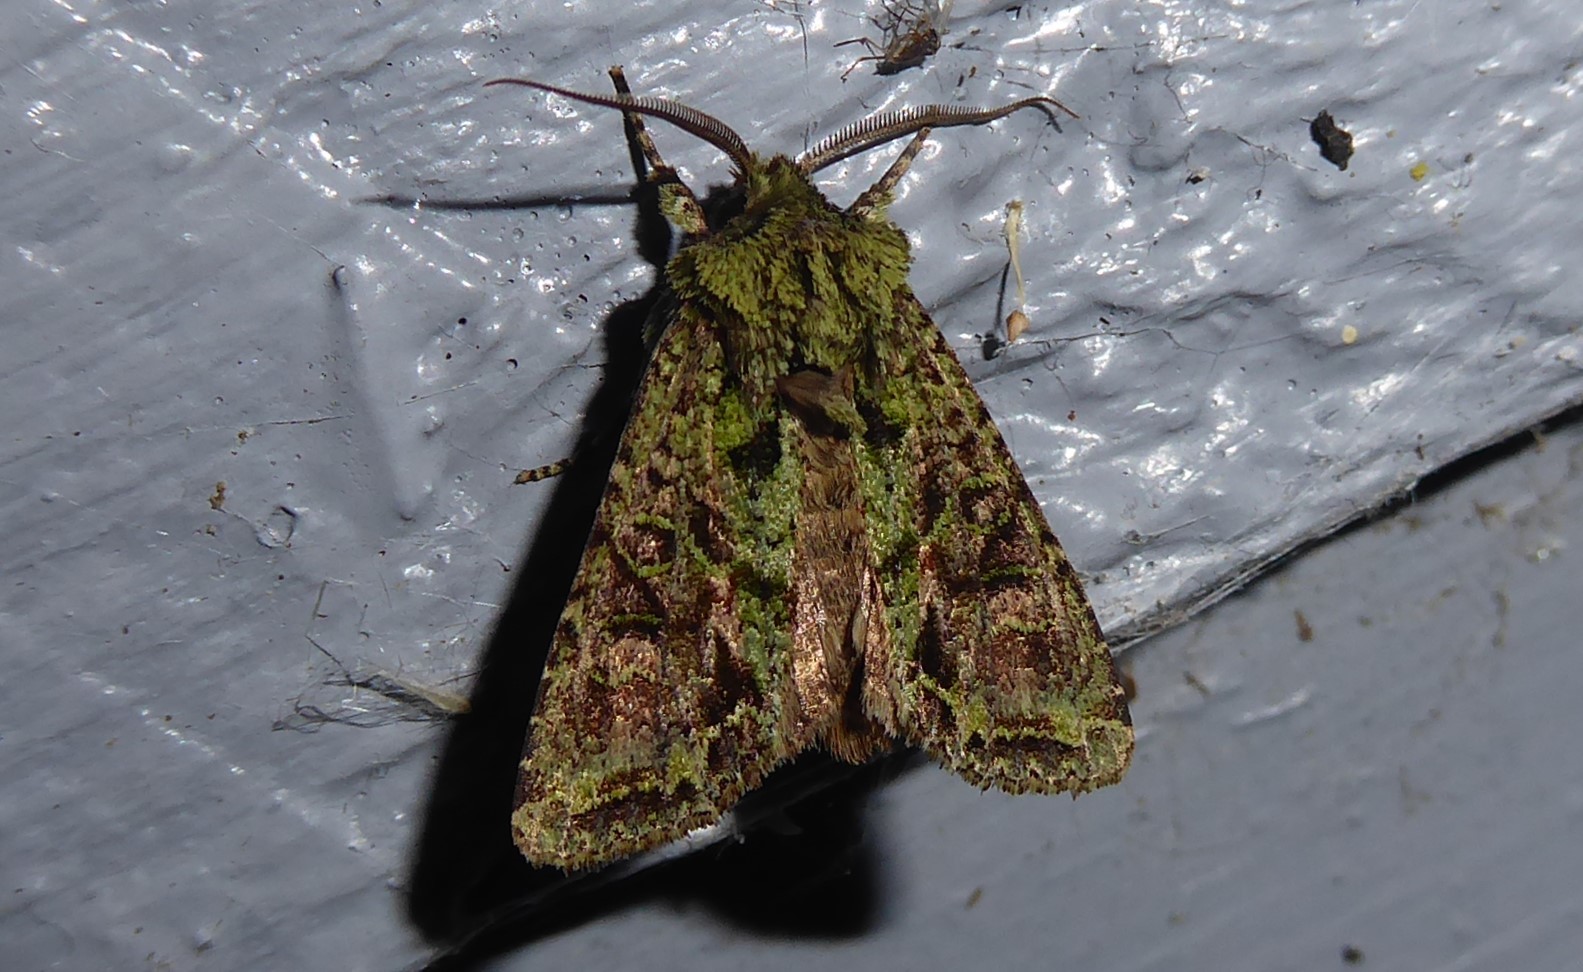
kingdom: Animalia
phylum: Arthropoda
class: Insecta
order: Lepidoptera
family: Noctuidae
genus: Ichneutica
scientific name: Ichneutica
